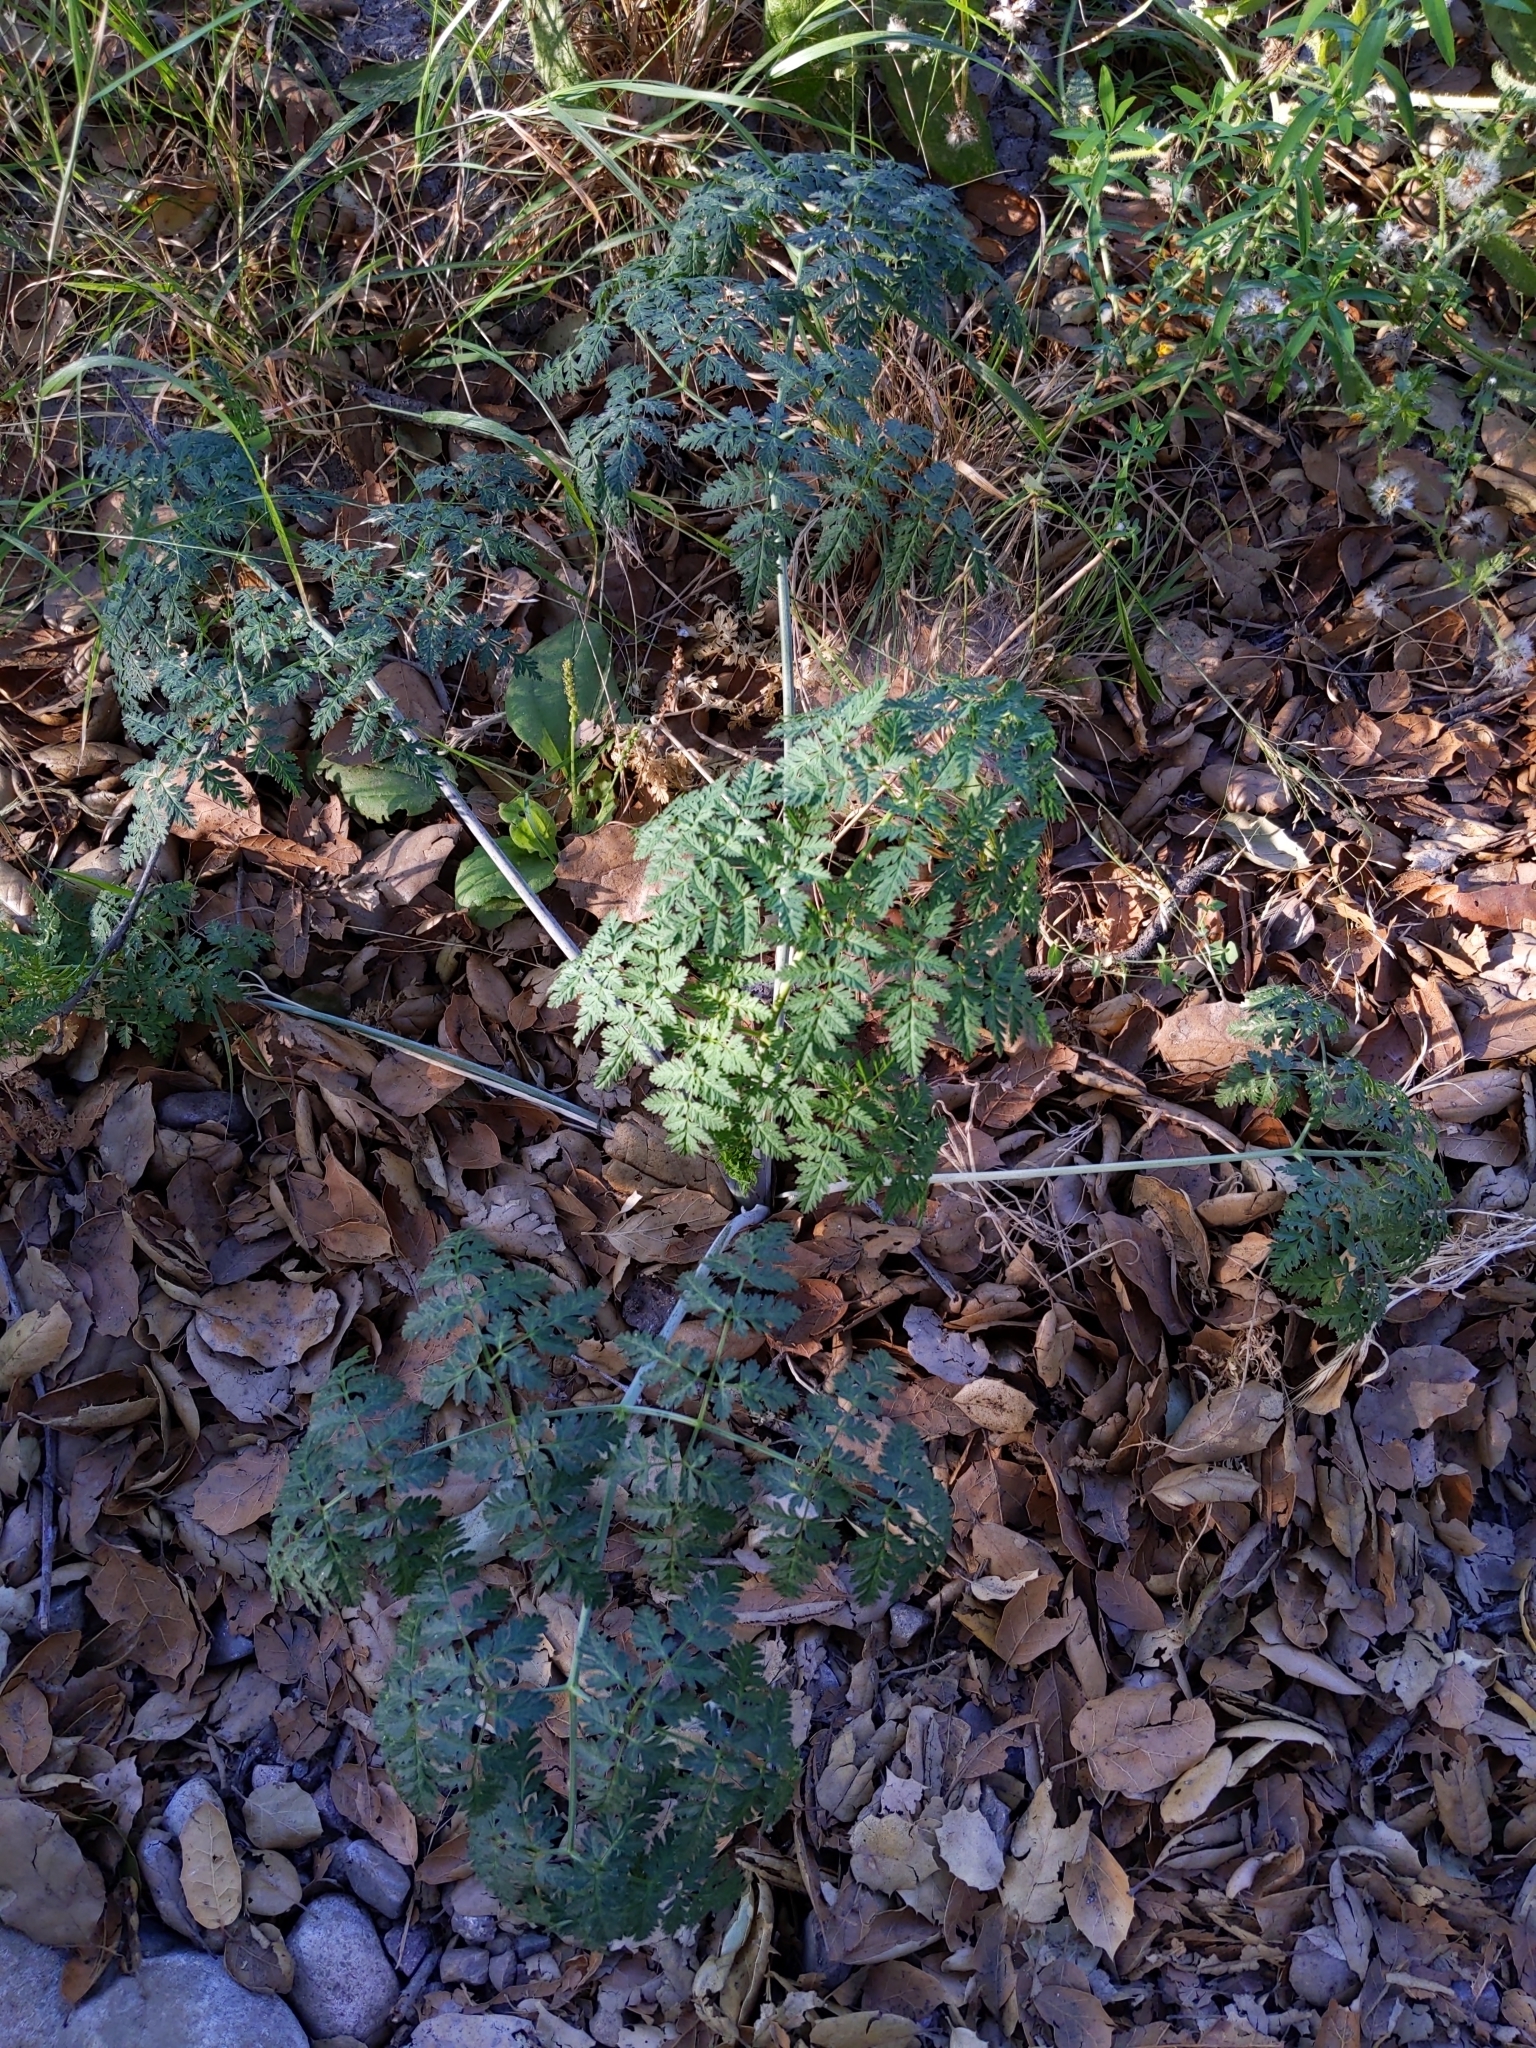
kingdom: Plantae
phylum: Tracheophyta
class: Magnoliopsida
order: Apiales
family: Apiaceae
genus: Conium
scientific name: Conium maculatum
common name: Hemlock
